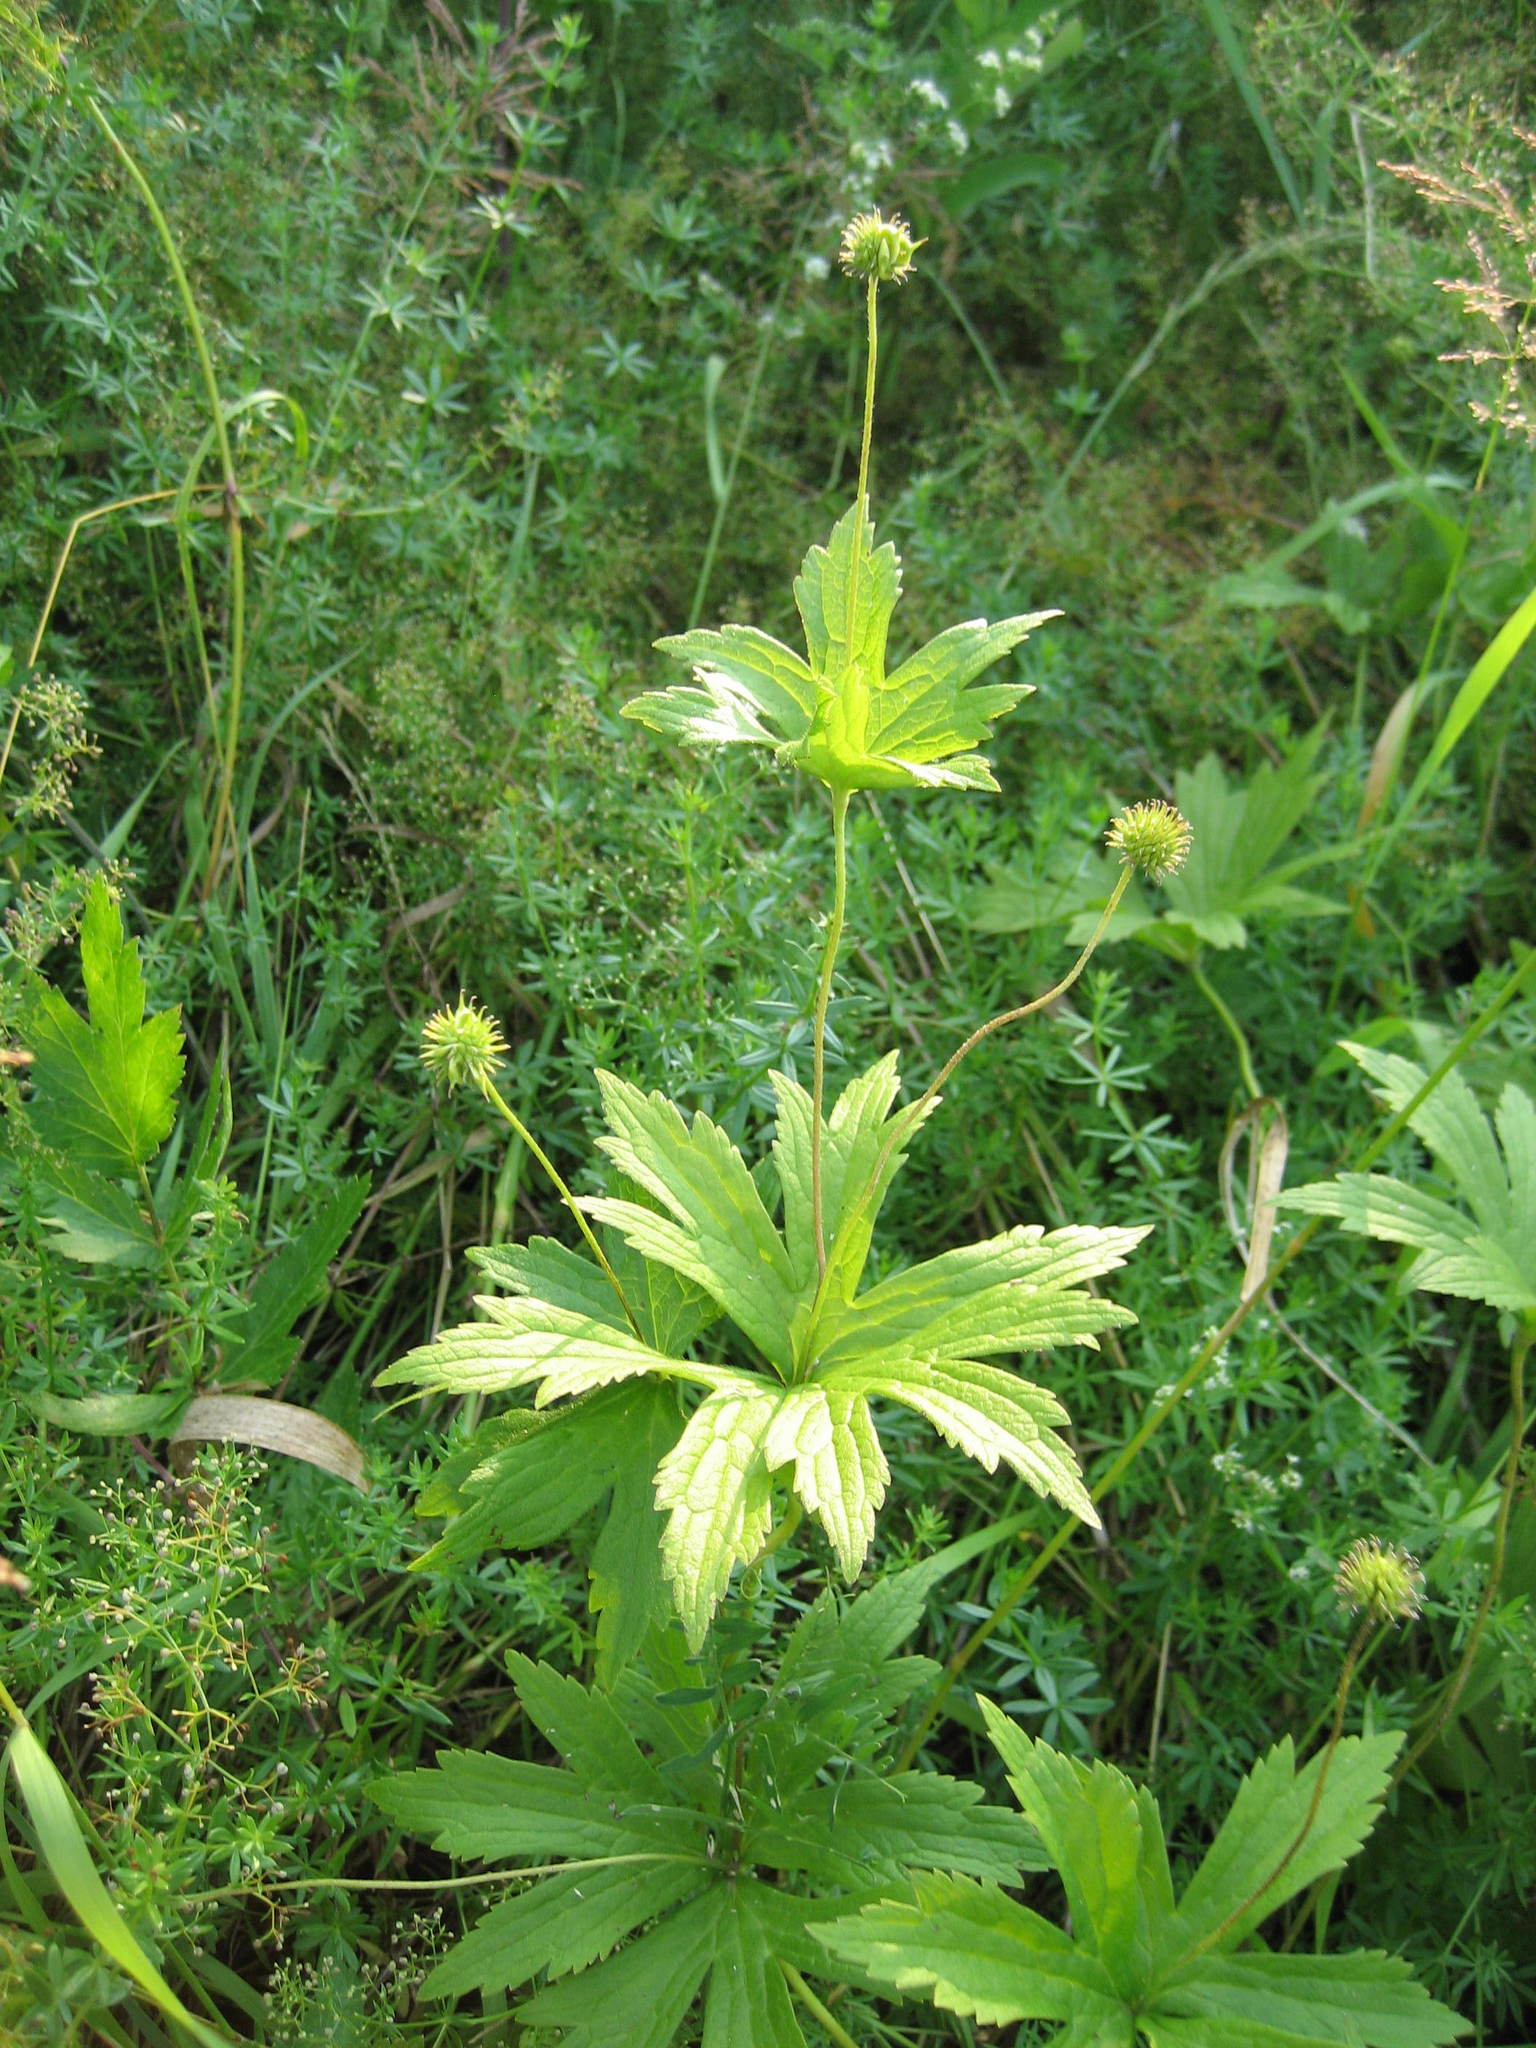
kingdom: Plantae
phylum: Tracheophyta
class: Magnoliopsida
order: Ranunculales
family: Ranunculaceae
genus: Anemonastrum
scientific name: Anemonastrum canadense
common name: Canada anemone
